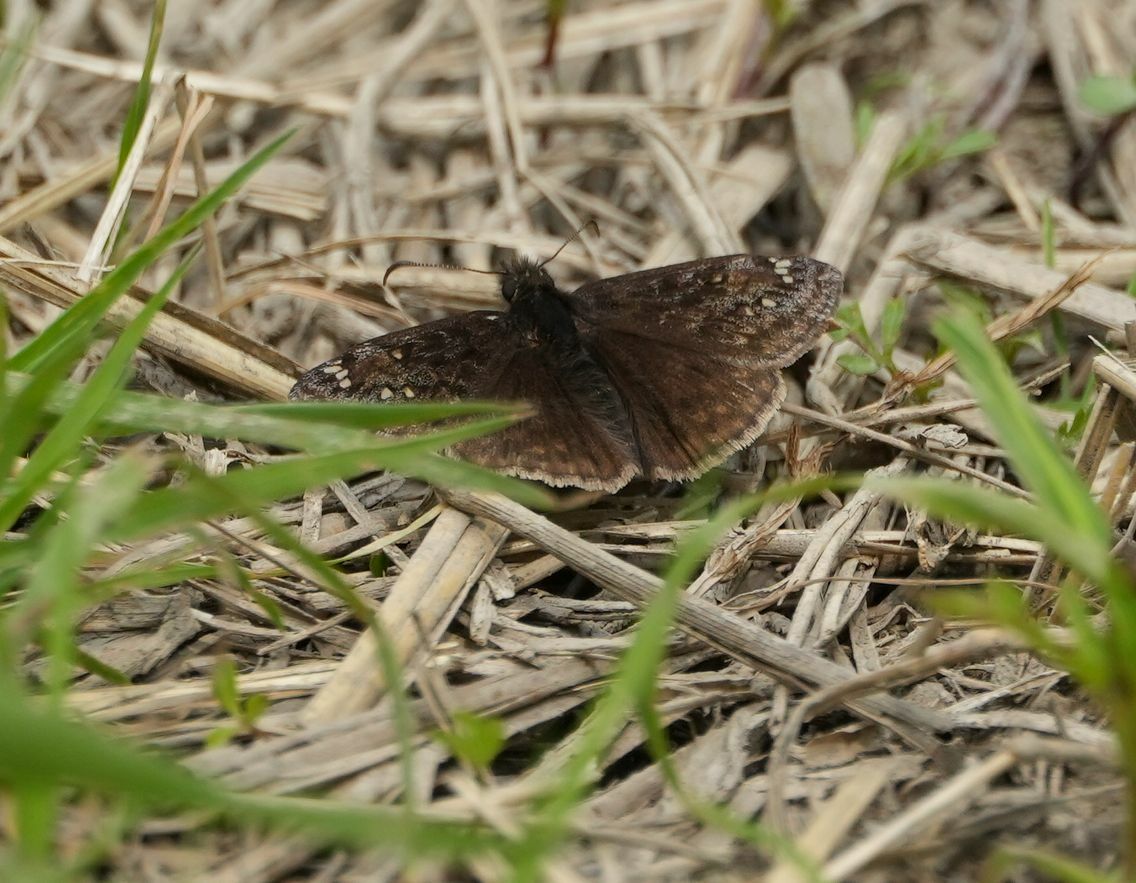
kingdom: Animalia
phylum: Arthropoda
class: Insecta
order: Lepidoptera
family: Hesperiidae
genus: Erynnis
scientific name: Erynnis juvenalis
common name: Juvenal's duskywing
